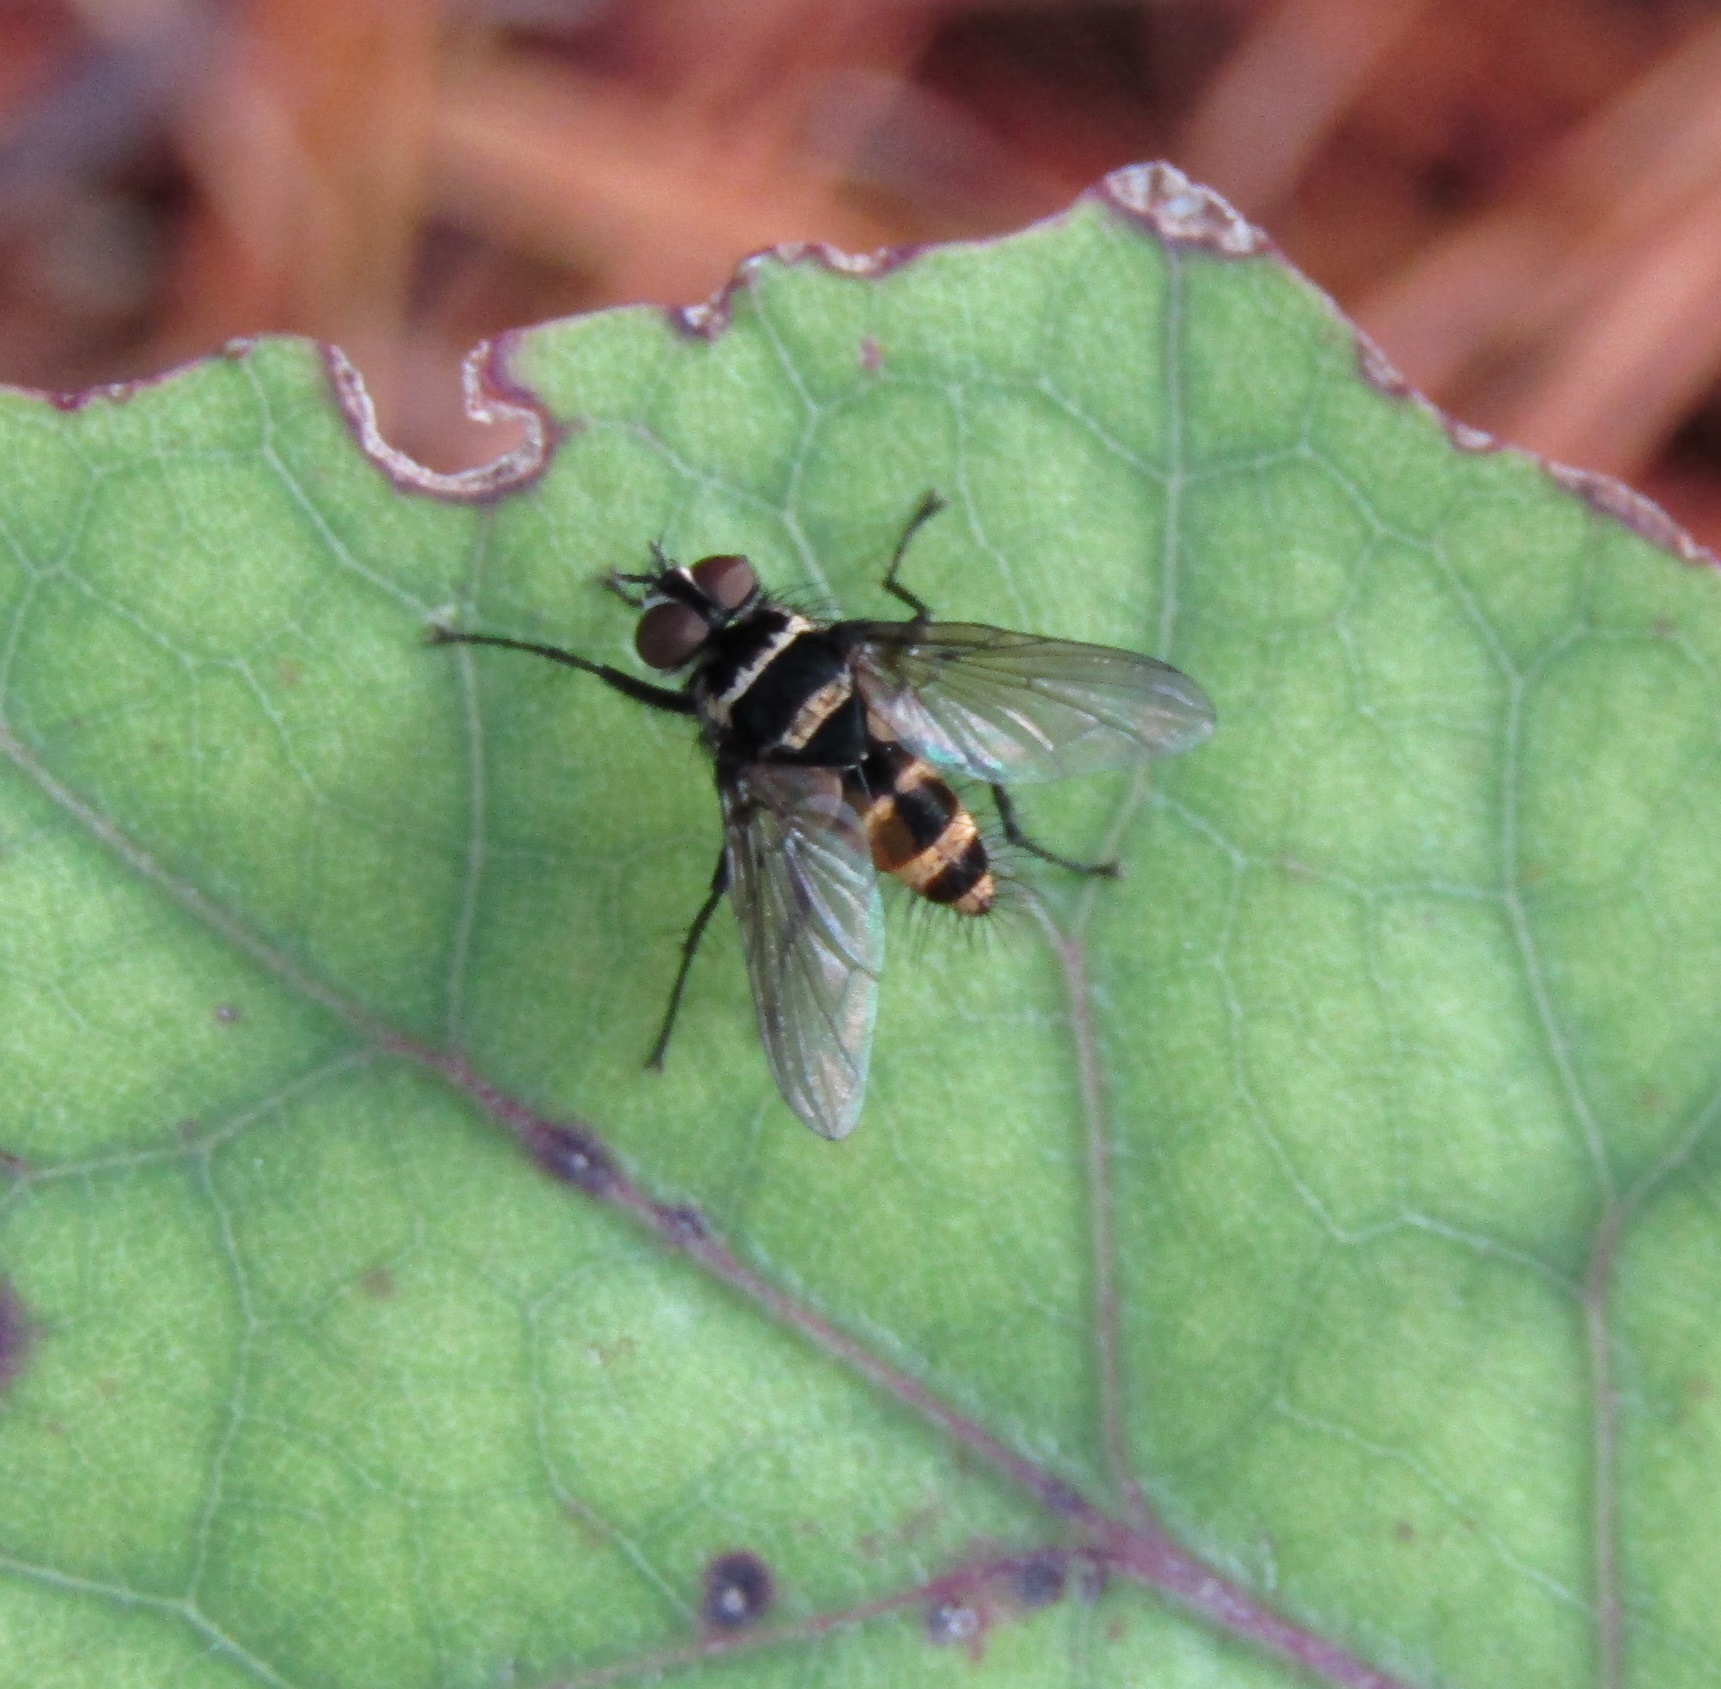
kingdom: Animalia
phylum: Arthropoda
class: Insecta
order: Diptera
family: Tachinidae
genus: Trigonospila
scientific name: Trigonospila brevifacies
